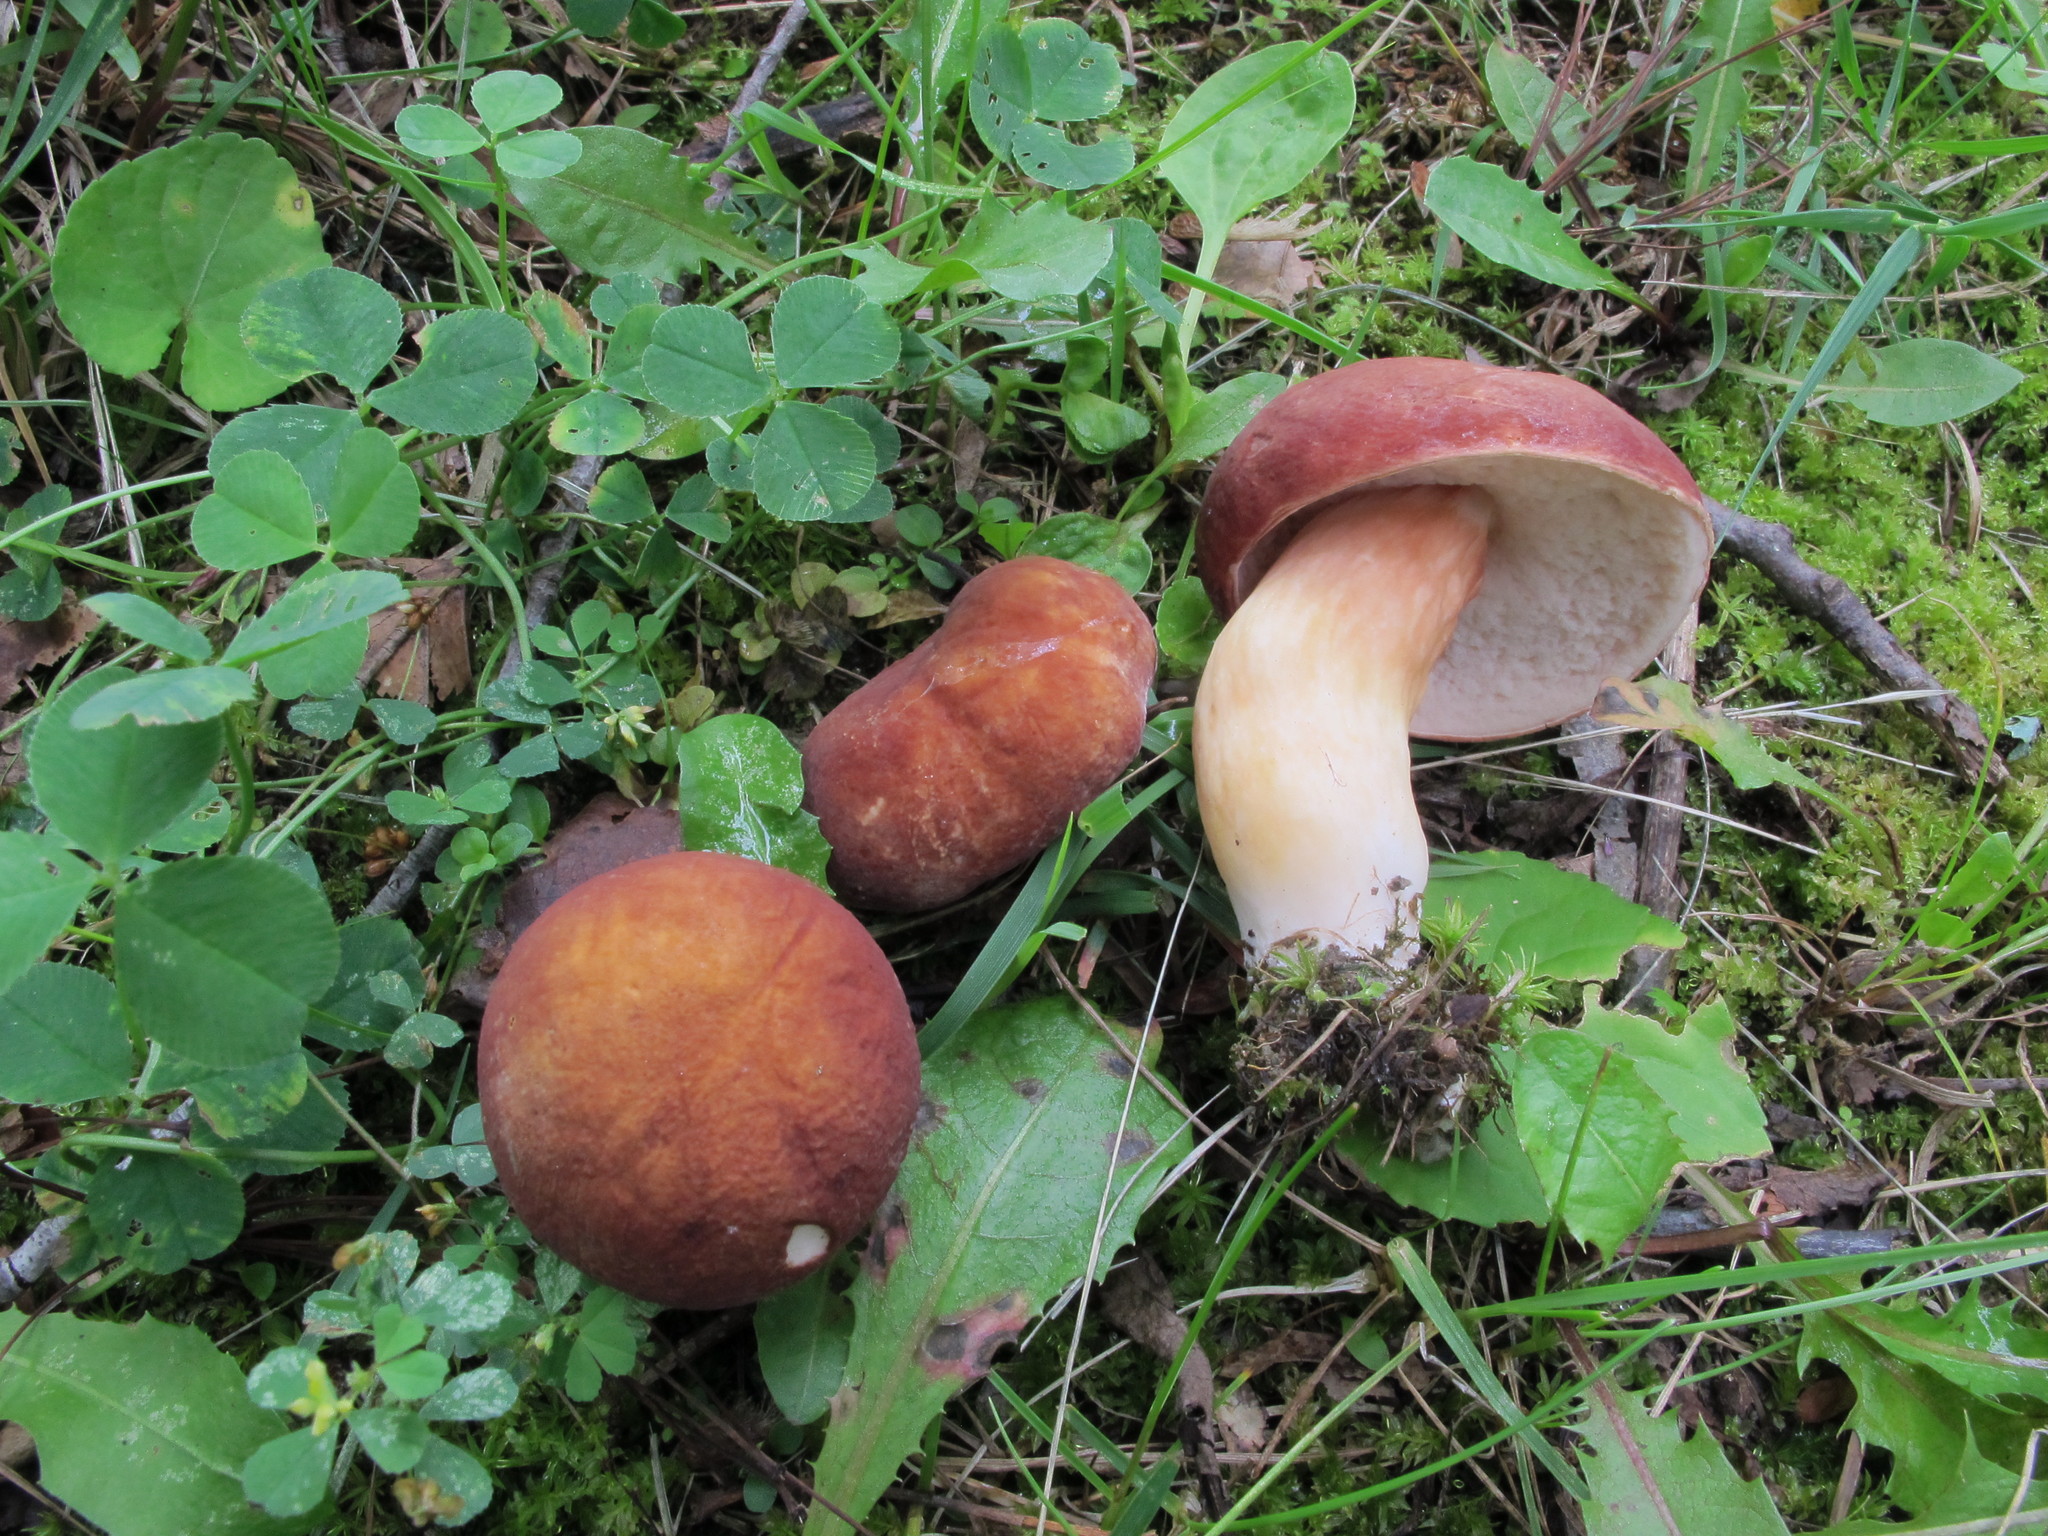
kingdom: Fungi
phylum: Basidiomycota
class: Agaricomycetes
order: Boletales
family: Boletaceae
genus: Xanthoconium
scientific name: Xanthoconium affine
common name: Spotted bolete
